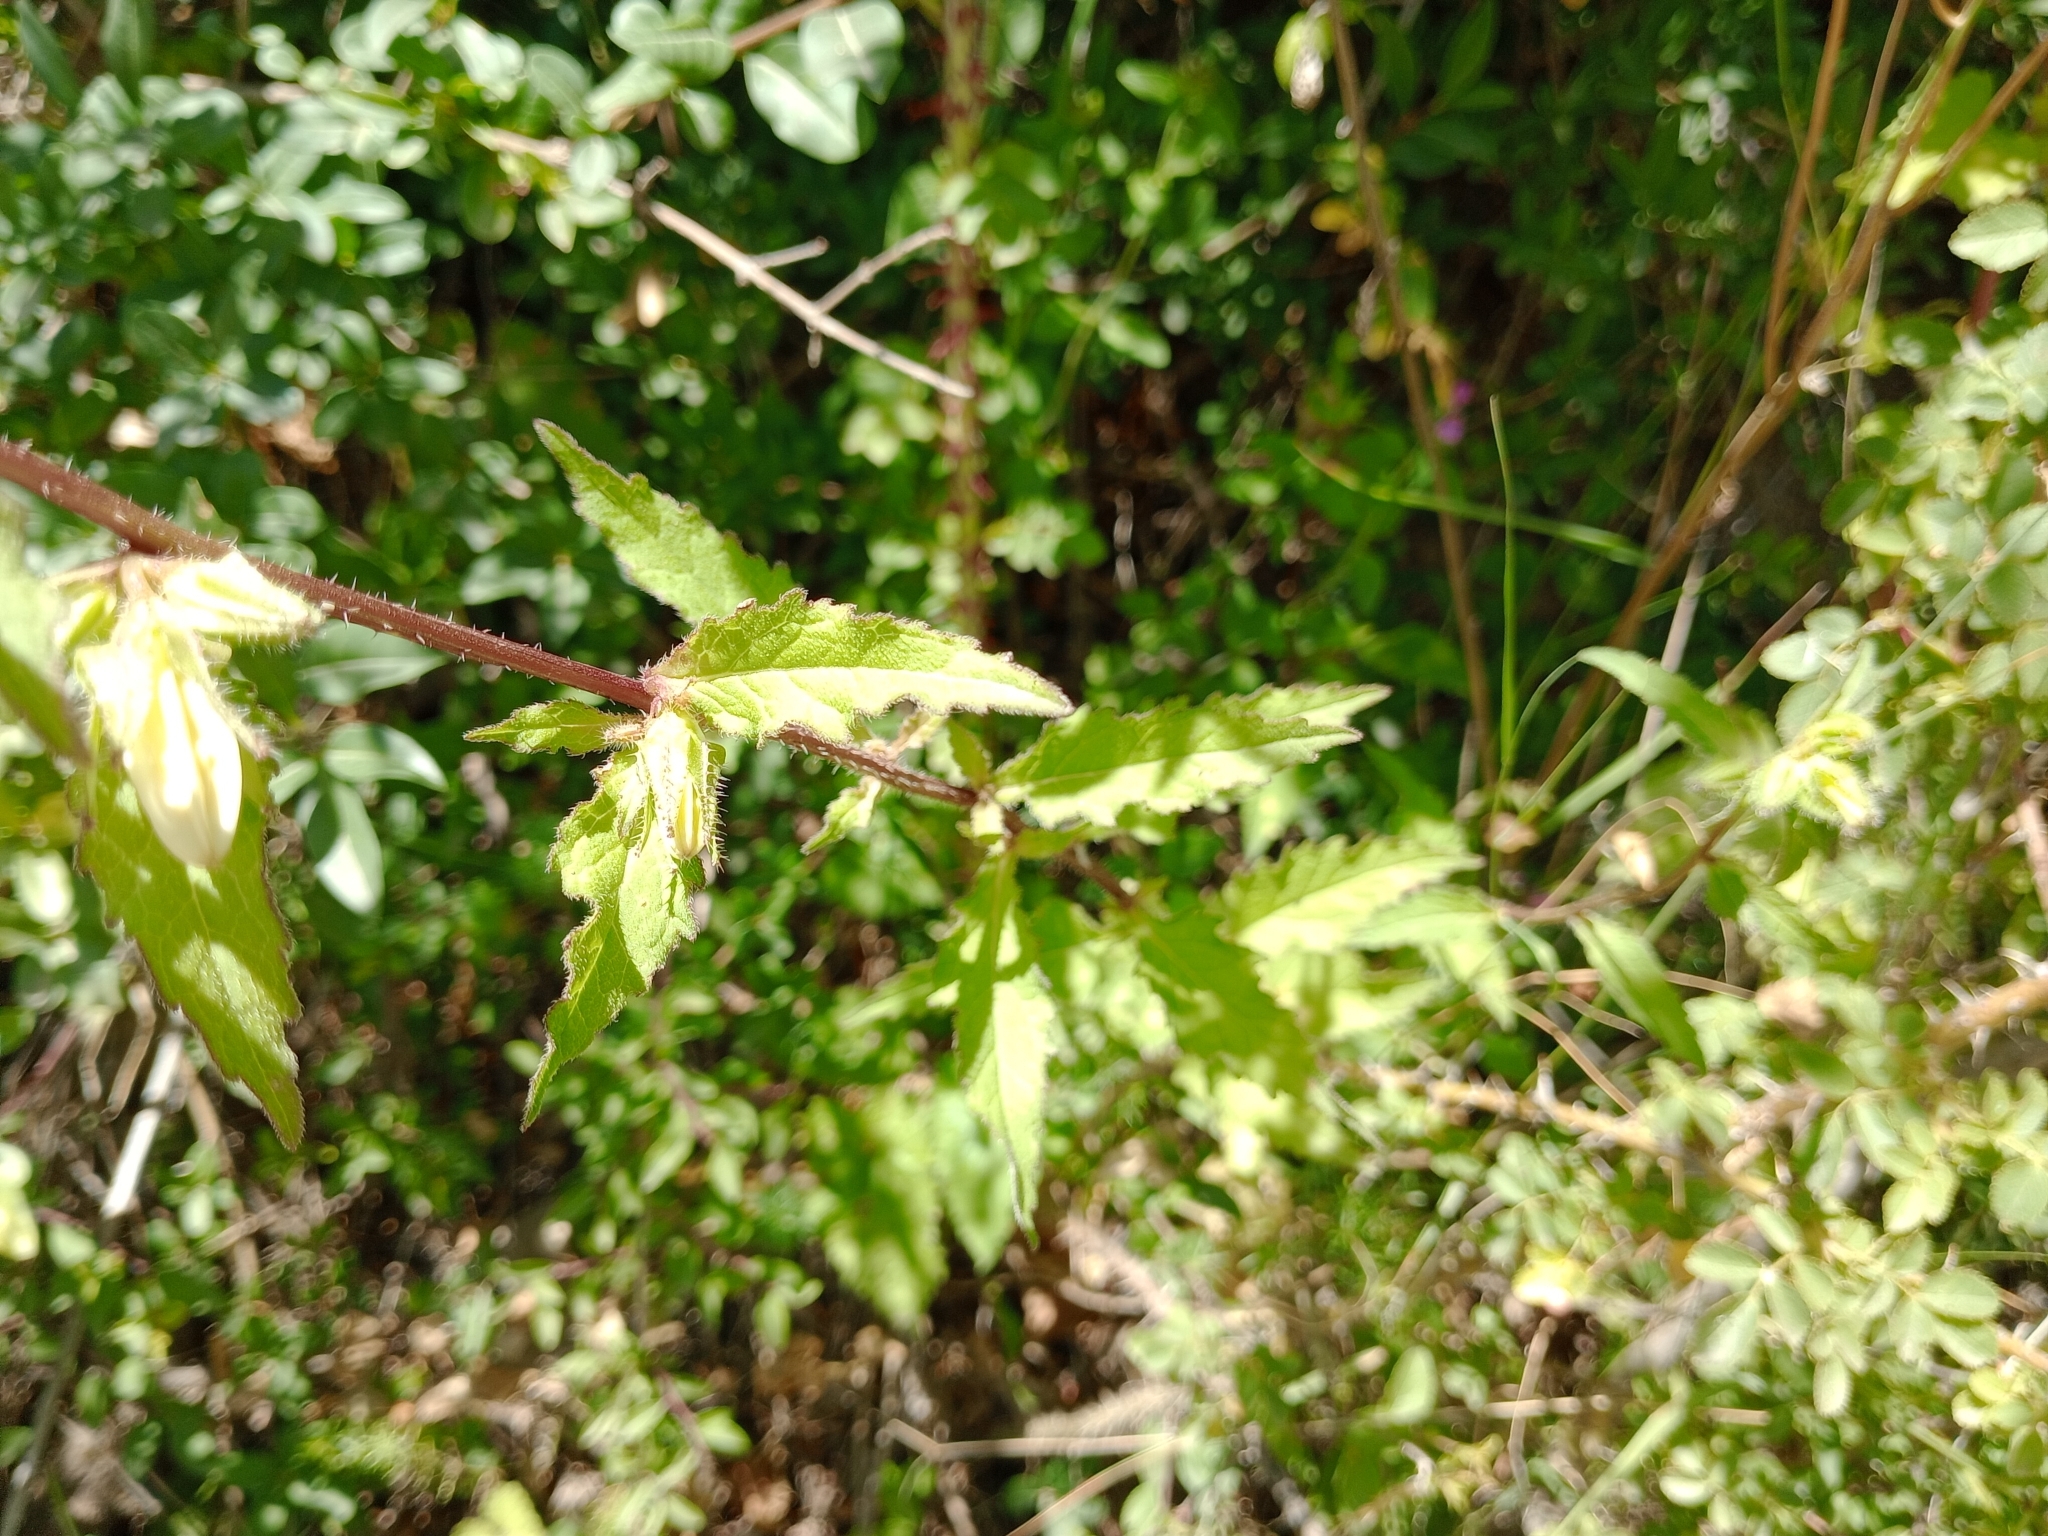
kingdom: Plantae
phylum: Tracheophyta
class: Magnoliopsida
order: Asterales
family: Campanulaceae
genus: Campanula
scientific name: Campanula trachelium
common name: Nettle-leaved bellflower
